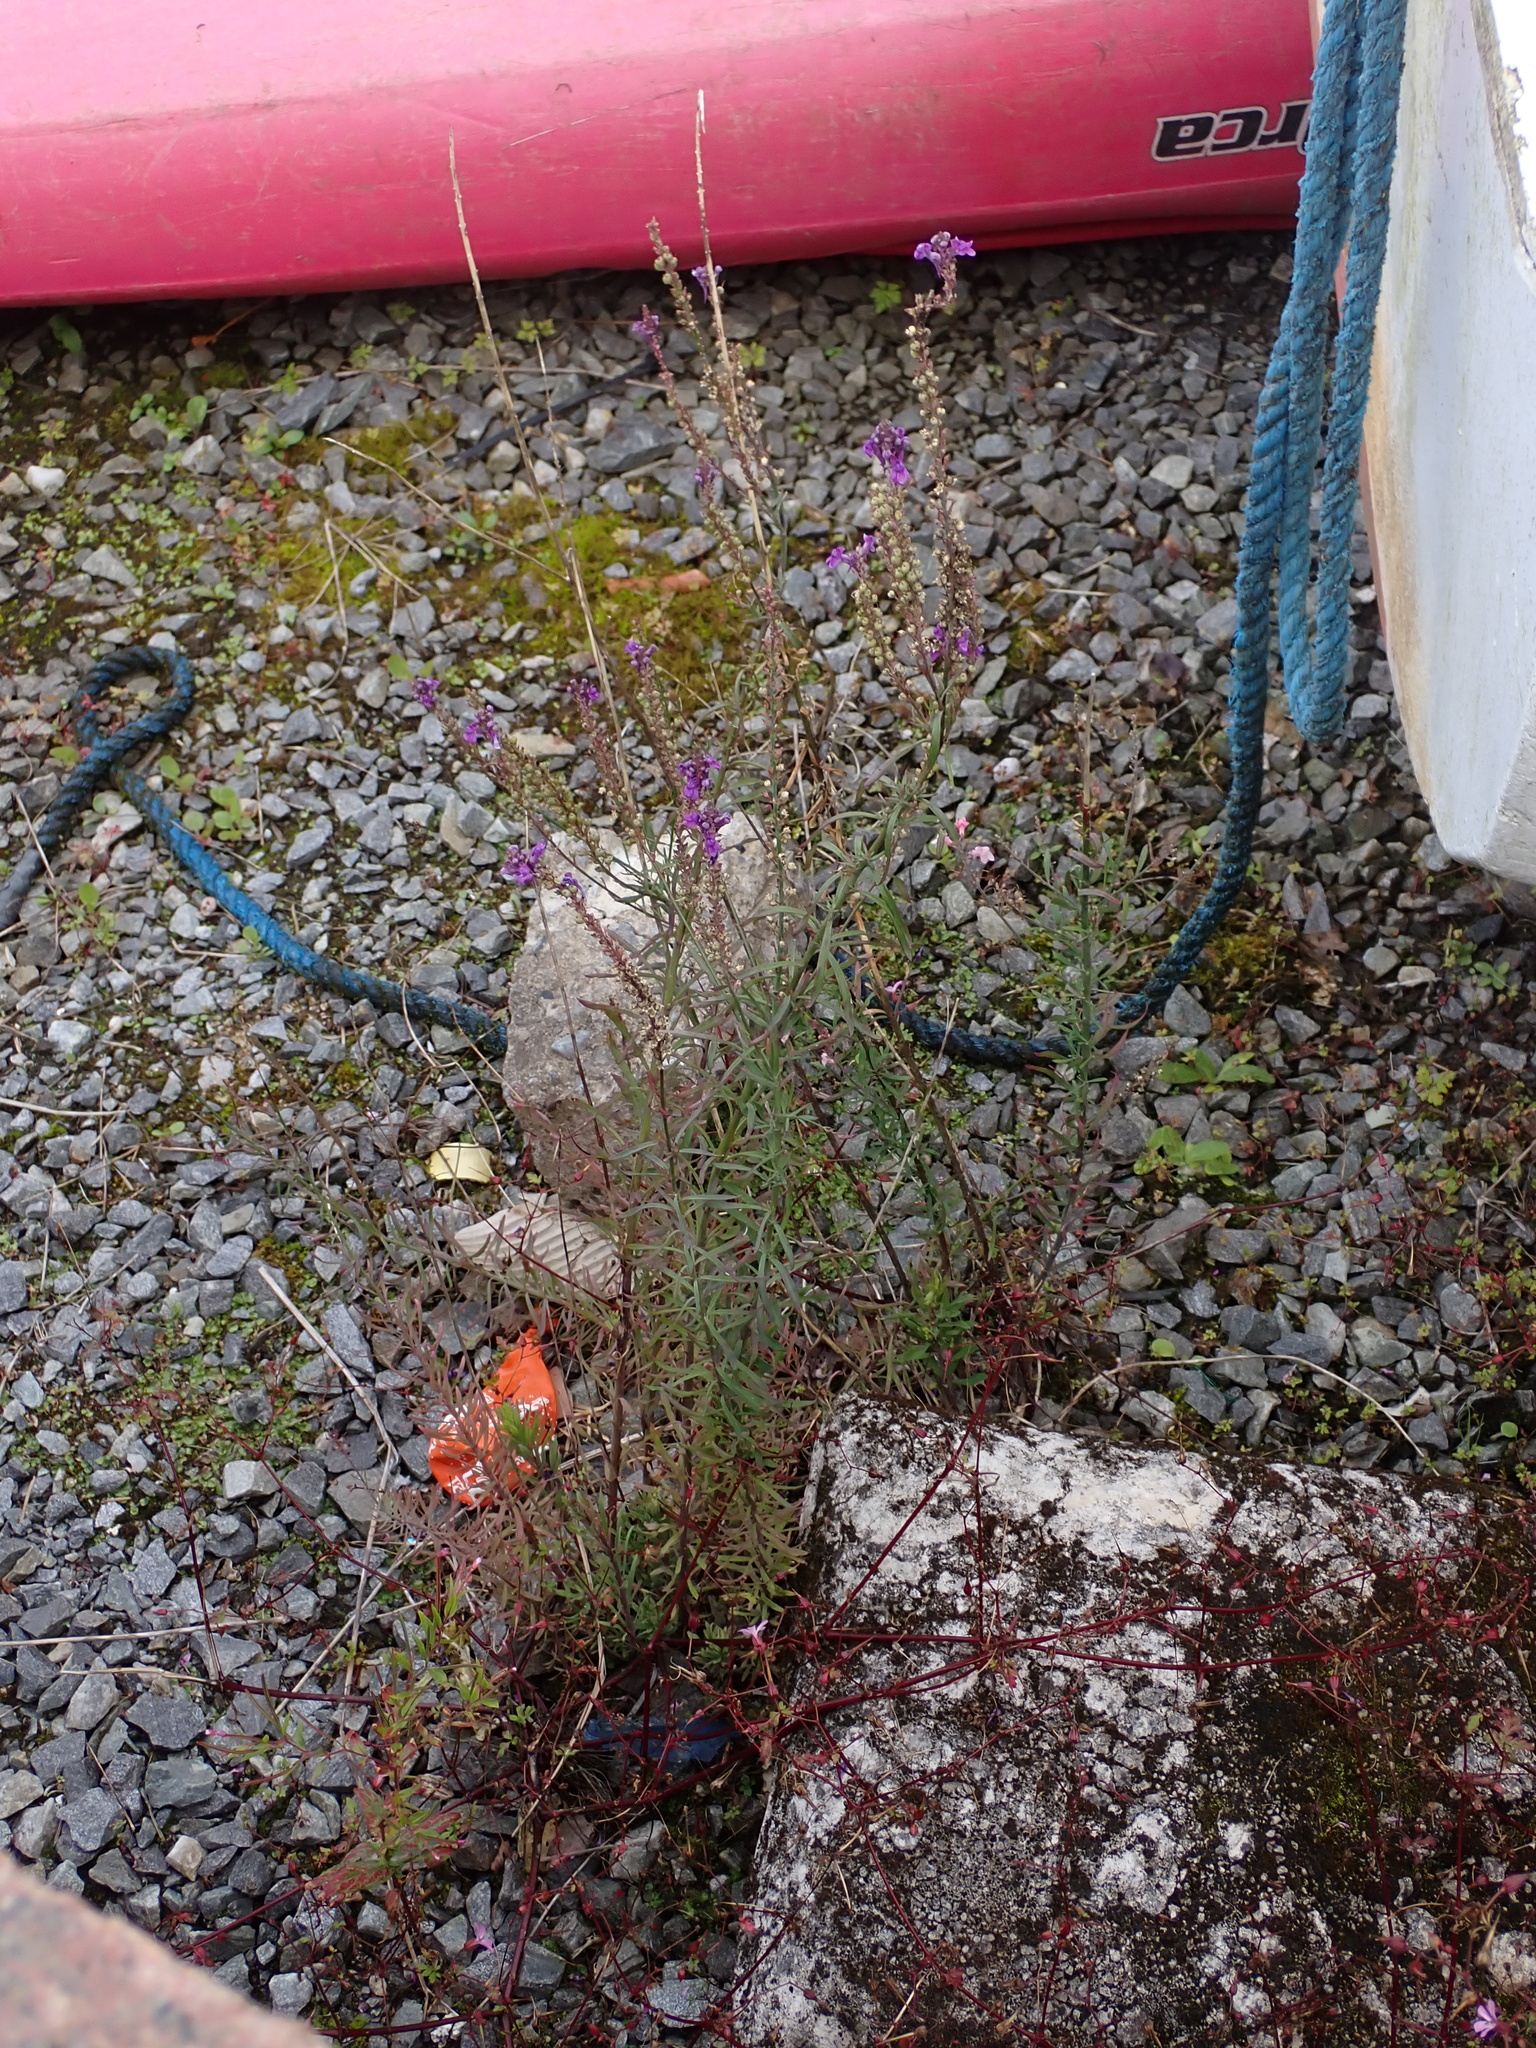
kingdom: Plantae
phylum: Tracheophyta
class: Magnoliopsida
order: Lamiales
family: Plantaginaceae
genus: Linaria
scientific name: Linaria purpurea
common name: Purple toadflax
